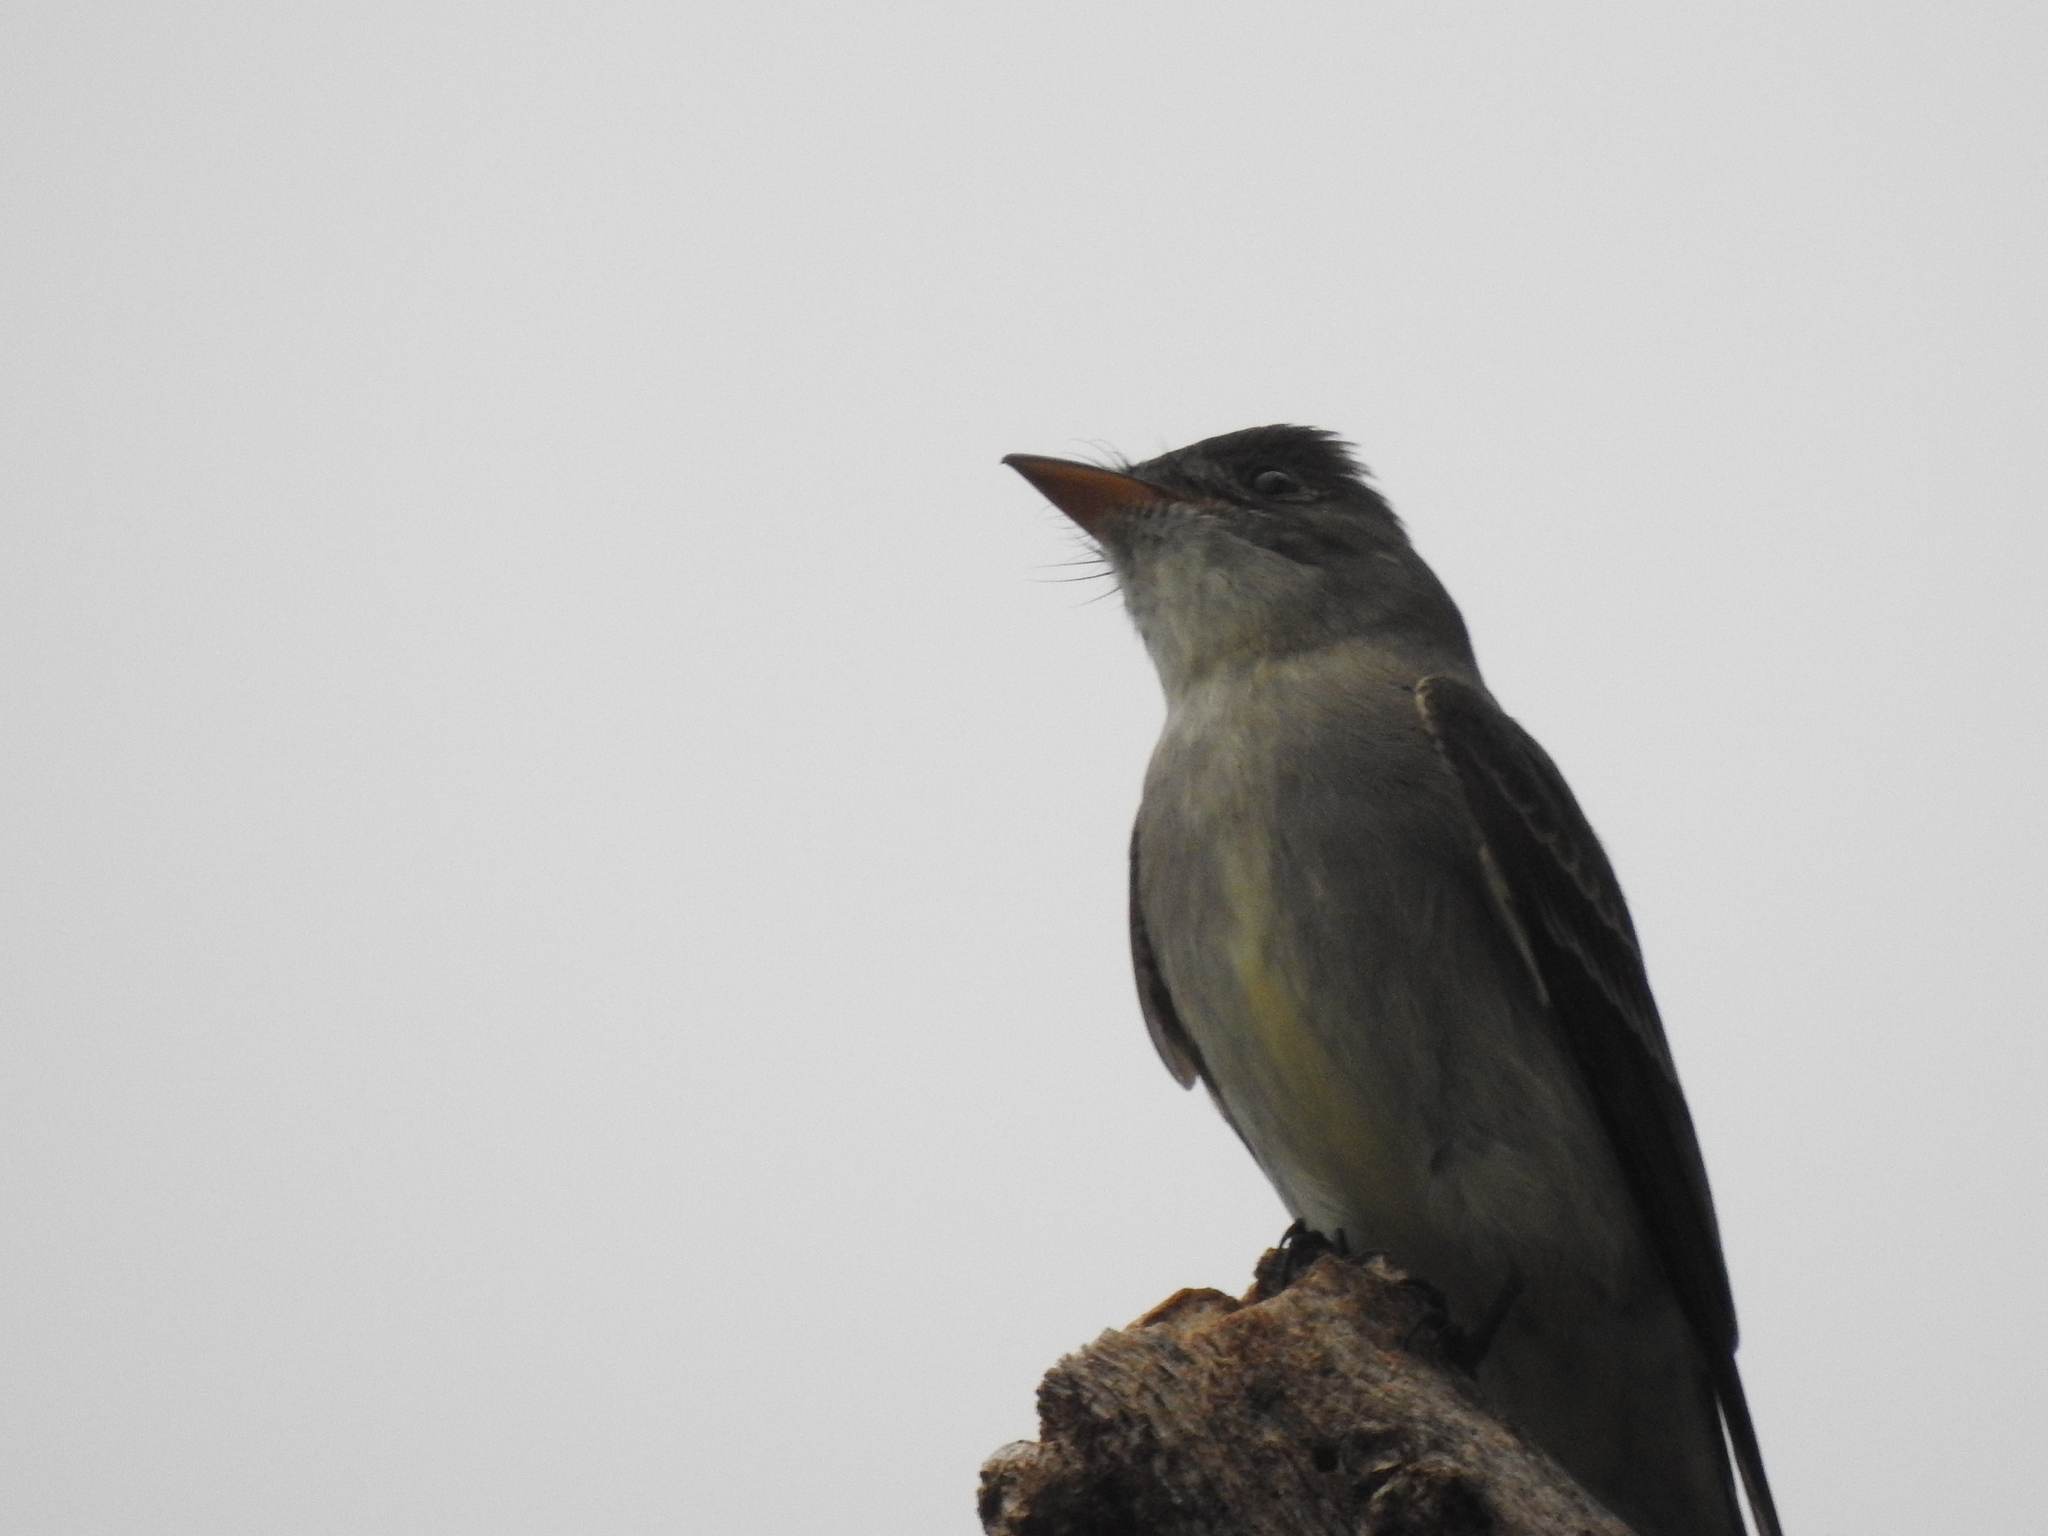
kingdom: Animalia
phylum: Chordata
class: Aves
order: Passeriformes
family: Tyrannidae
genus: Contopus
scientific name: Contopus virens
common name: Eastern wood-pewee
